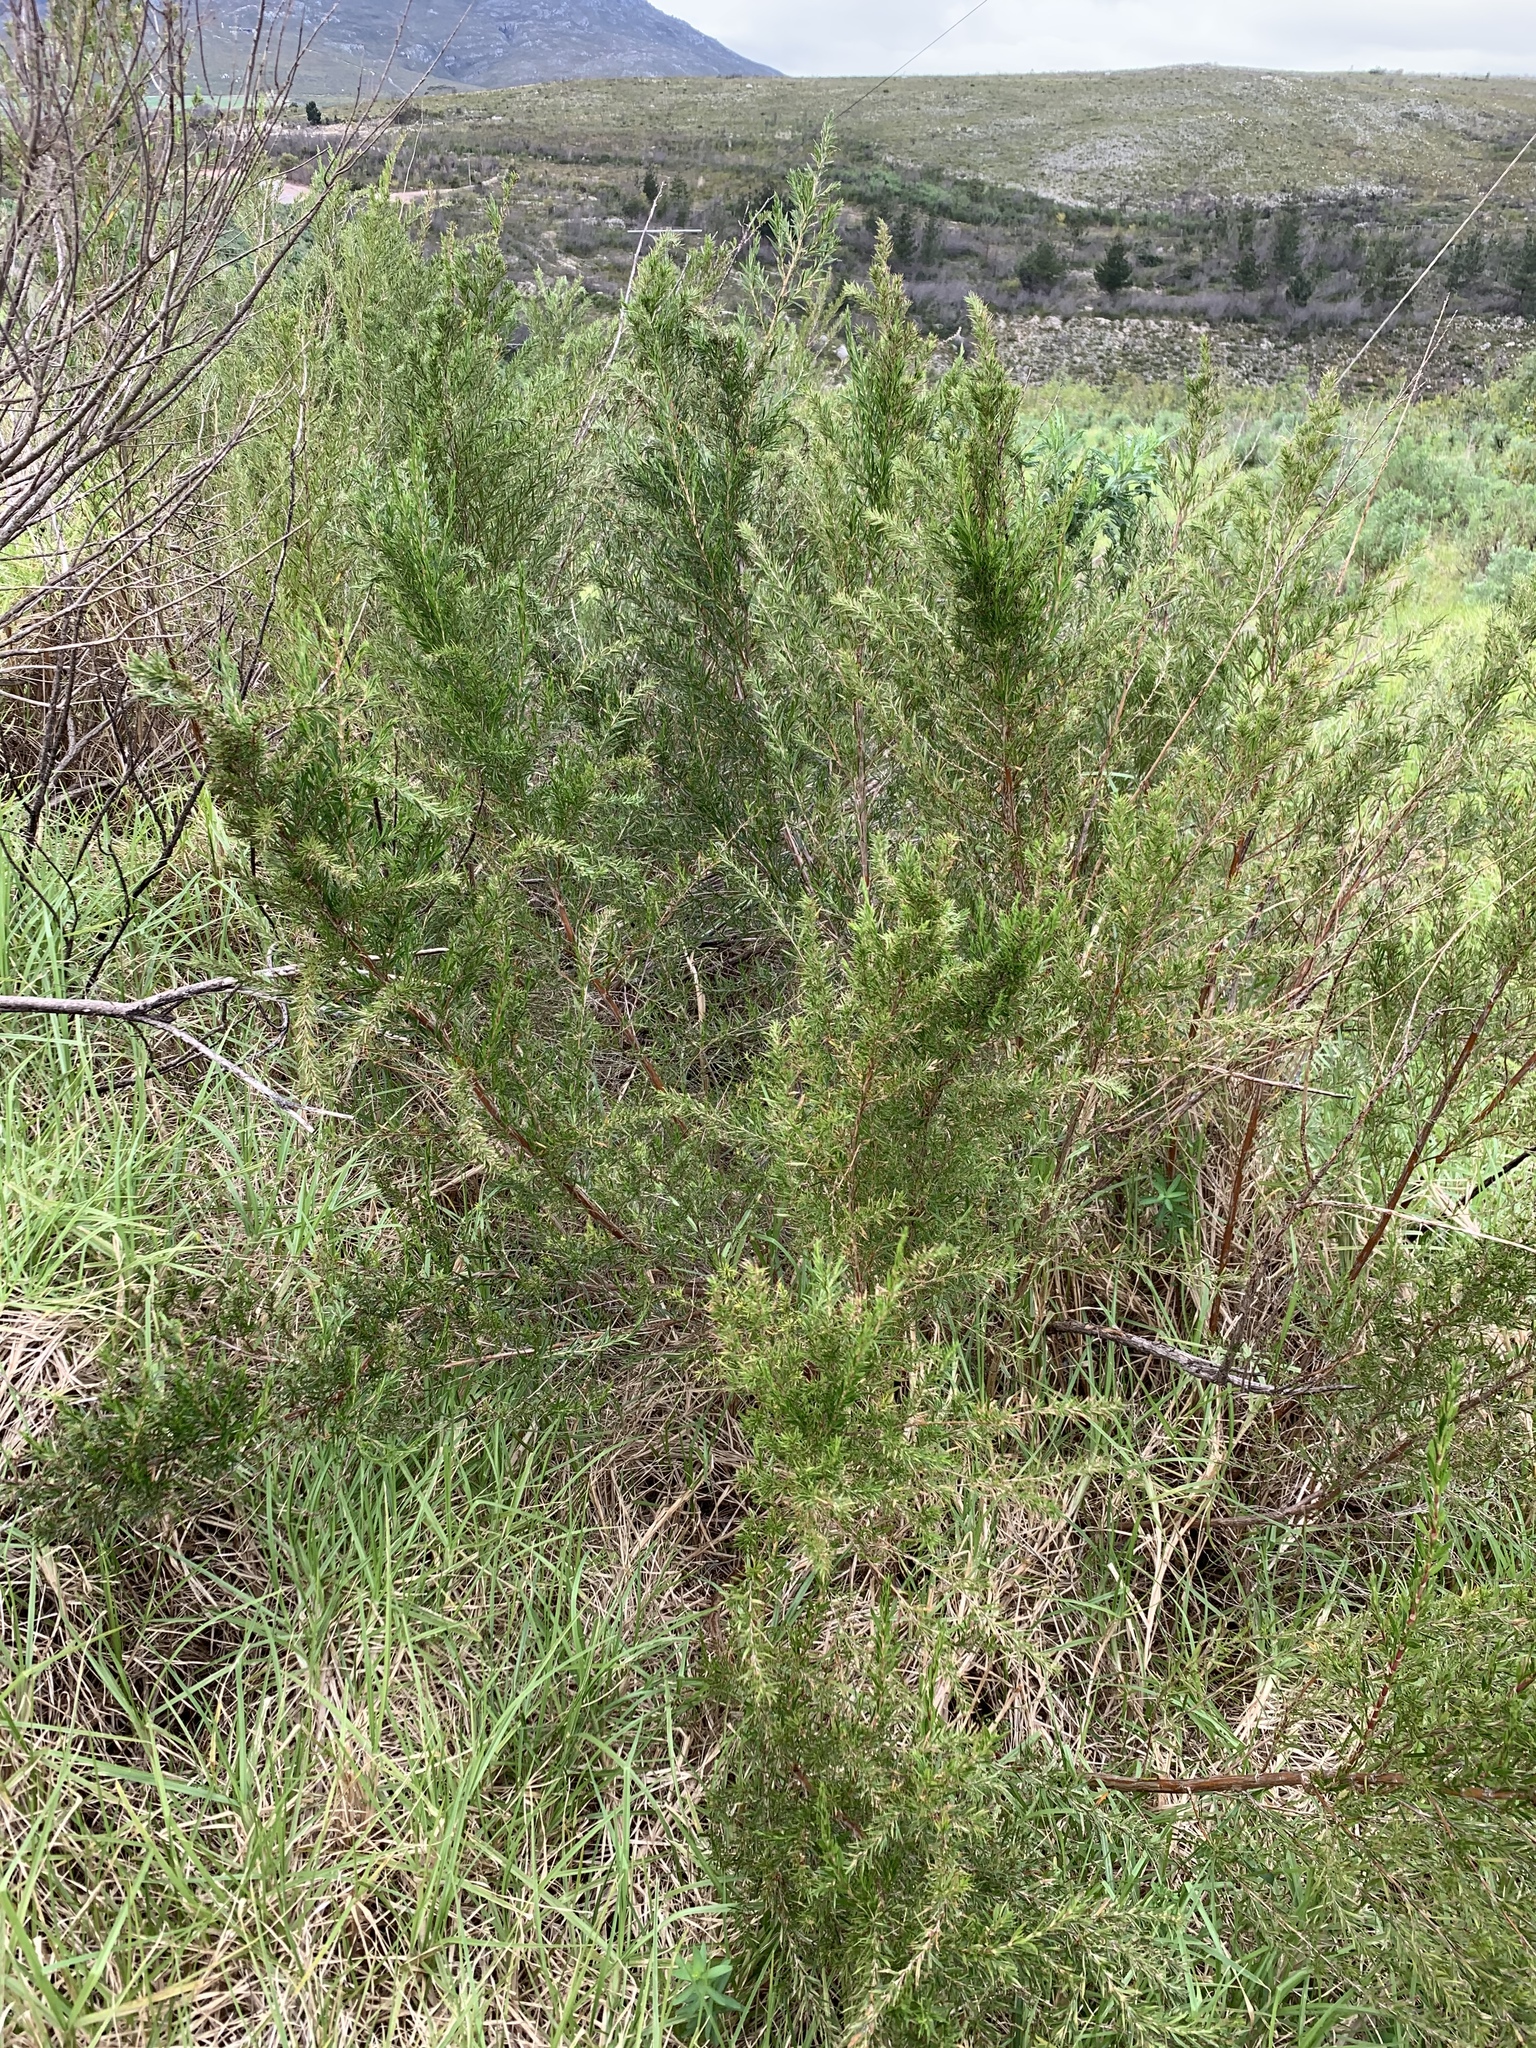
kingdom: Plantae
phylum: Tracheophyta
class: Magnoliopsida
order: Rosales
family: Rosaceae
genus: Cliffortia
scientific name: Cliffortia strobilifera
